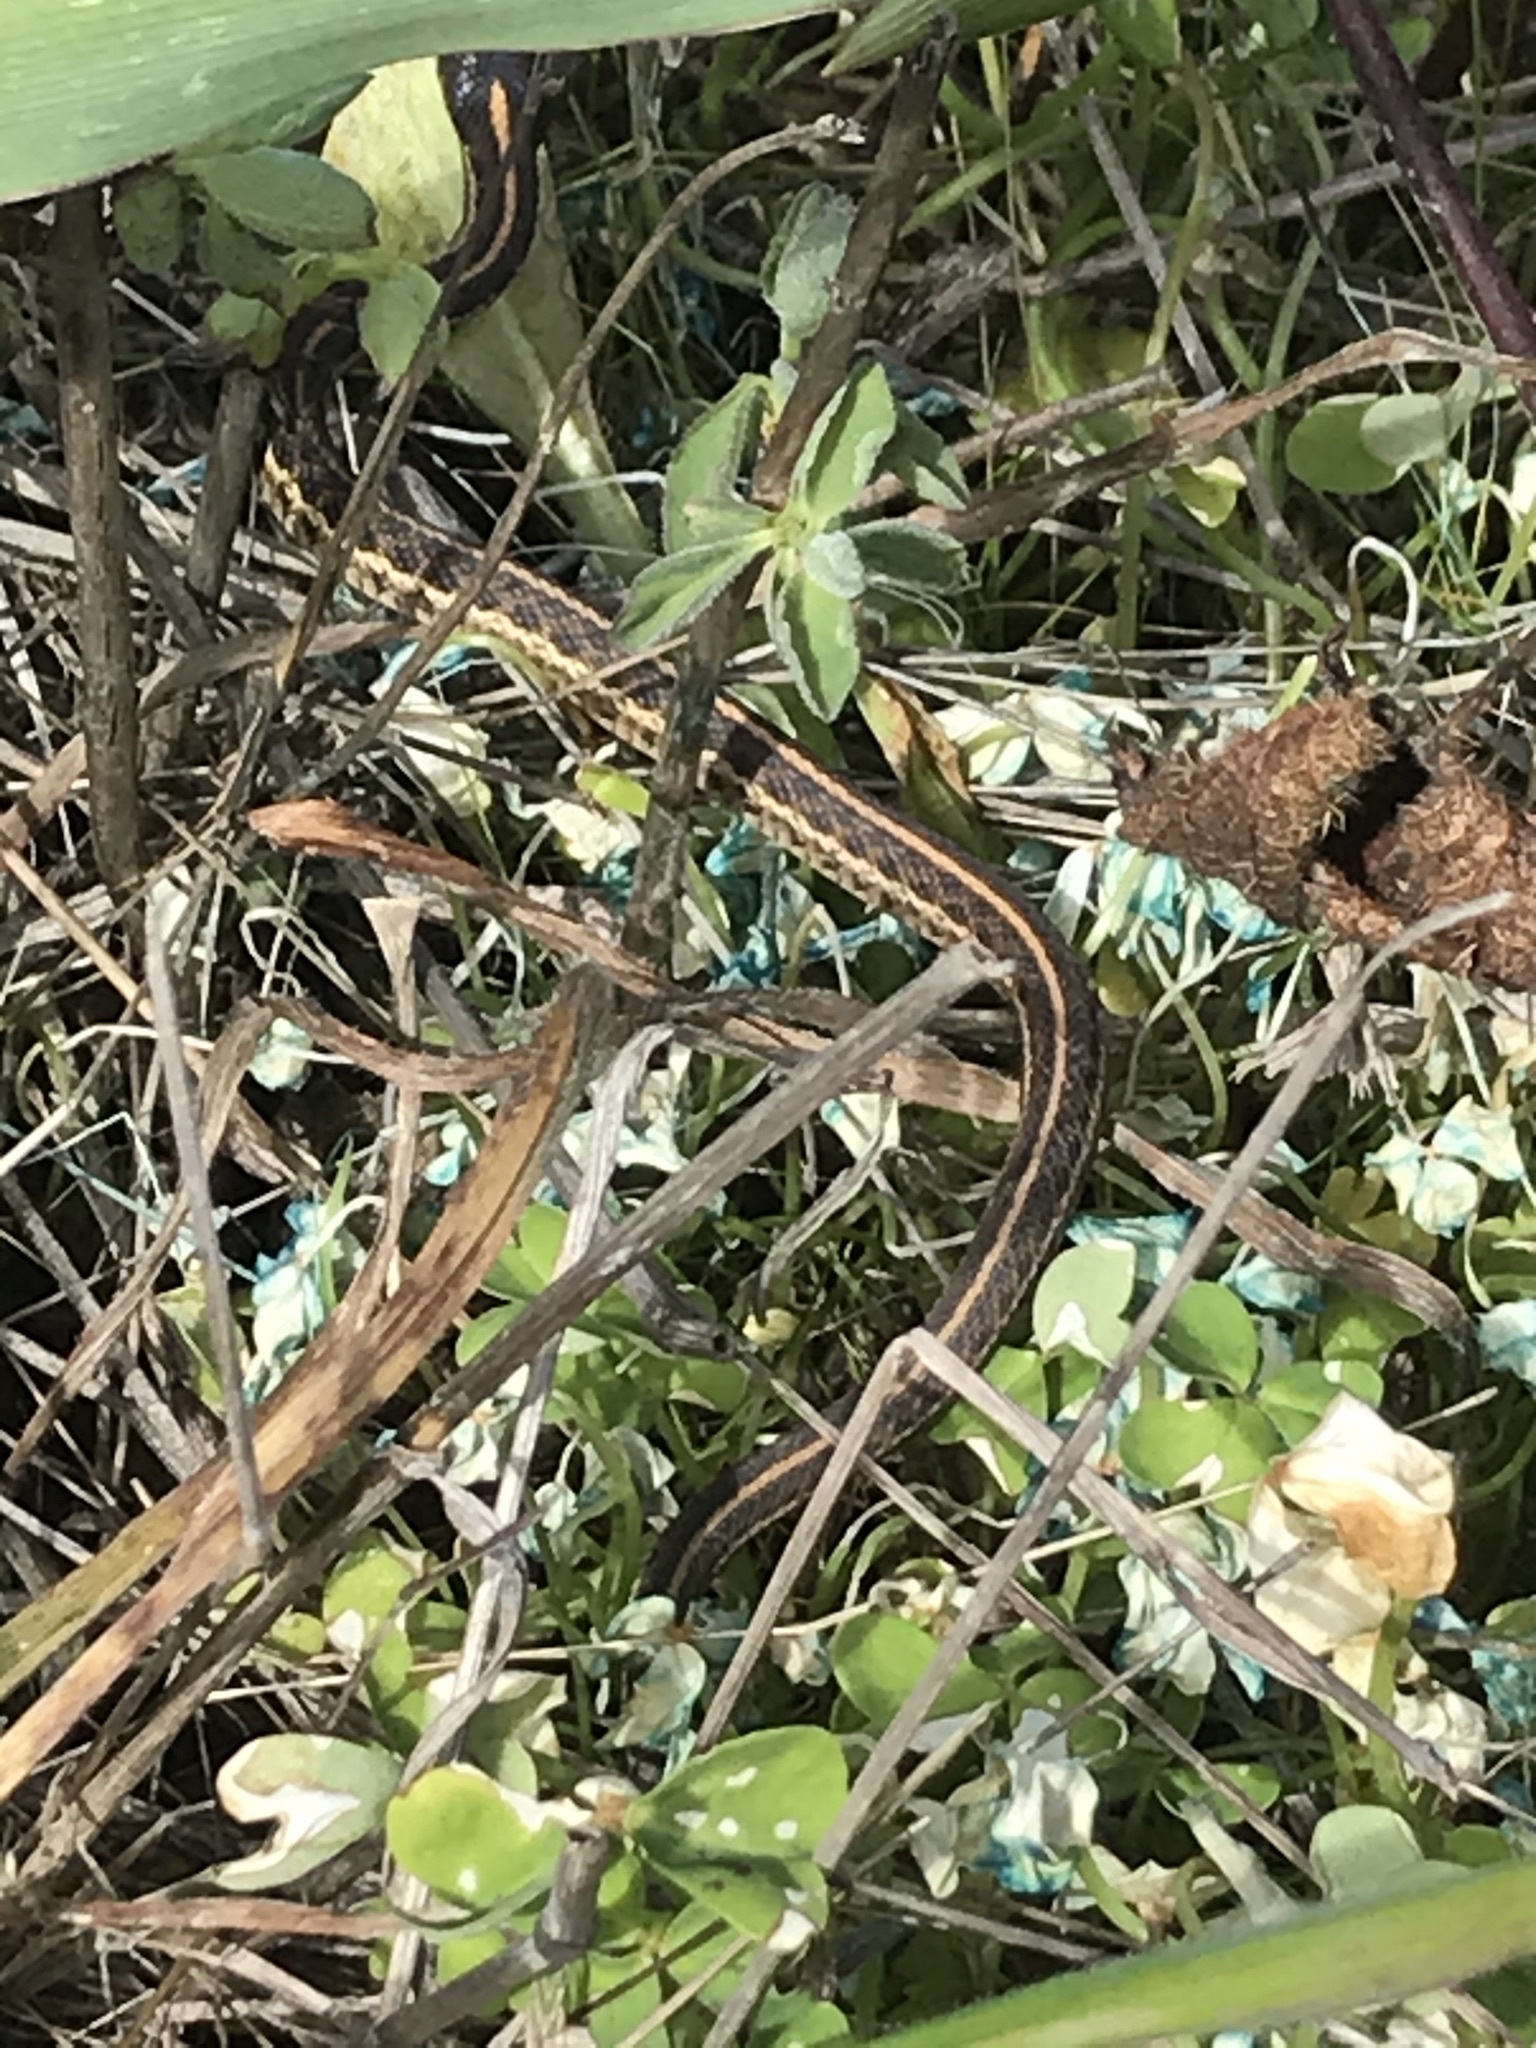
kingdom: Animalia
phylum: Chordata
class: Squamata
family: Colubridae
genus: Thamnophis
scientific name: Thamnophis elegans
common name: Western terrestrial garter snake
